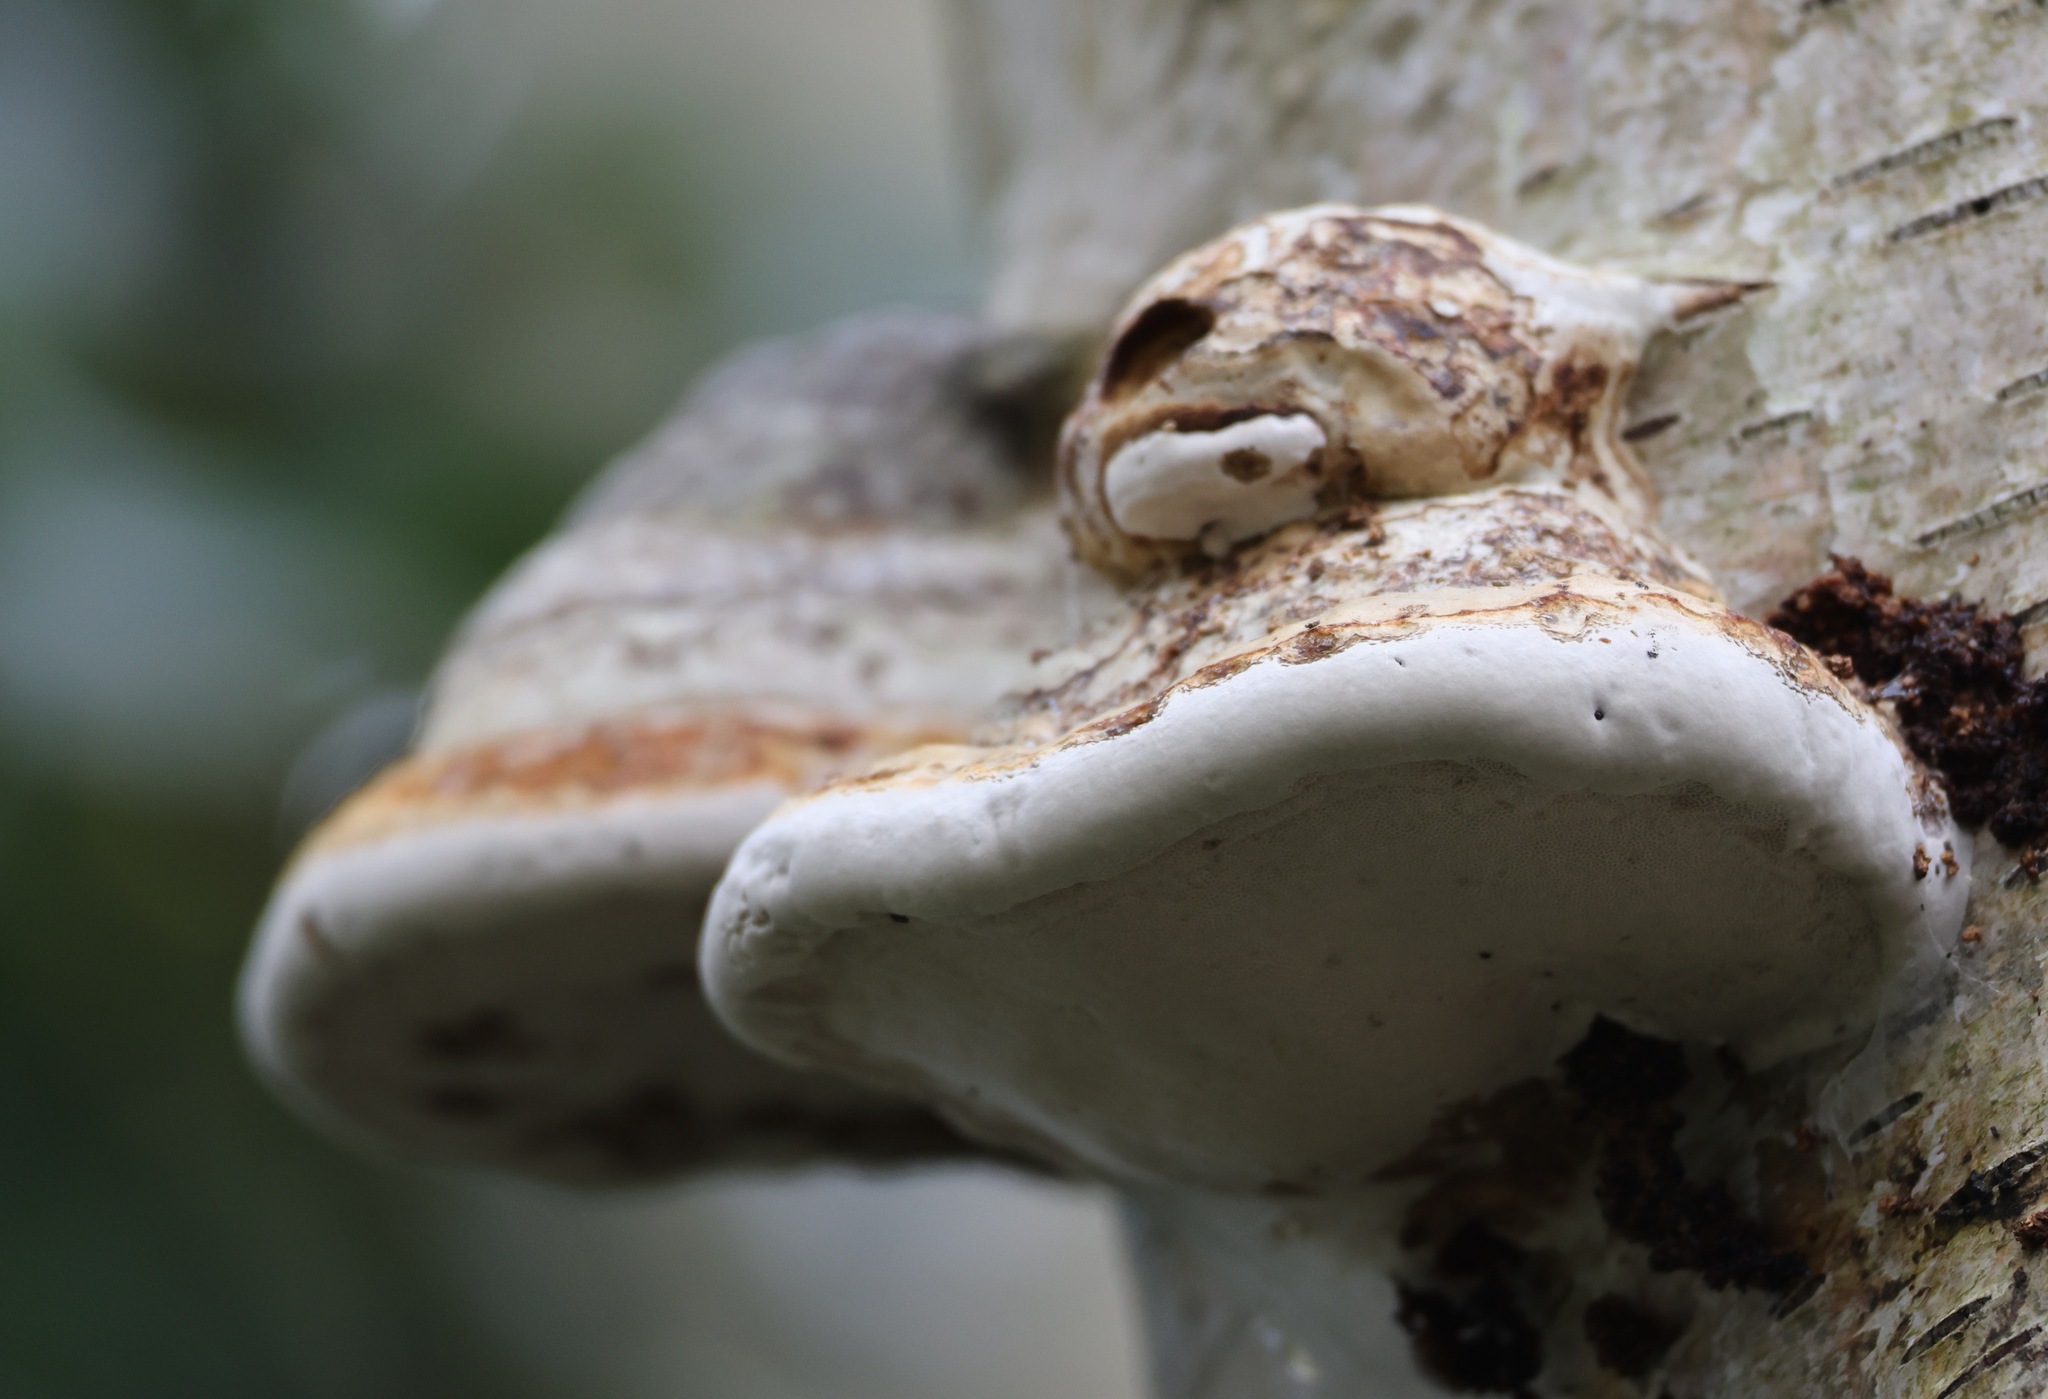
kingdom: Fungi
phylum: Basidiomycota
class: Agaricomycetes
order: Polyporales
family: Polyporaceae
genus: Fomes
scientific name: Fomes fomentarius
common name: Hoof fungus
